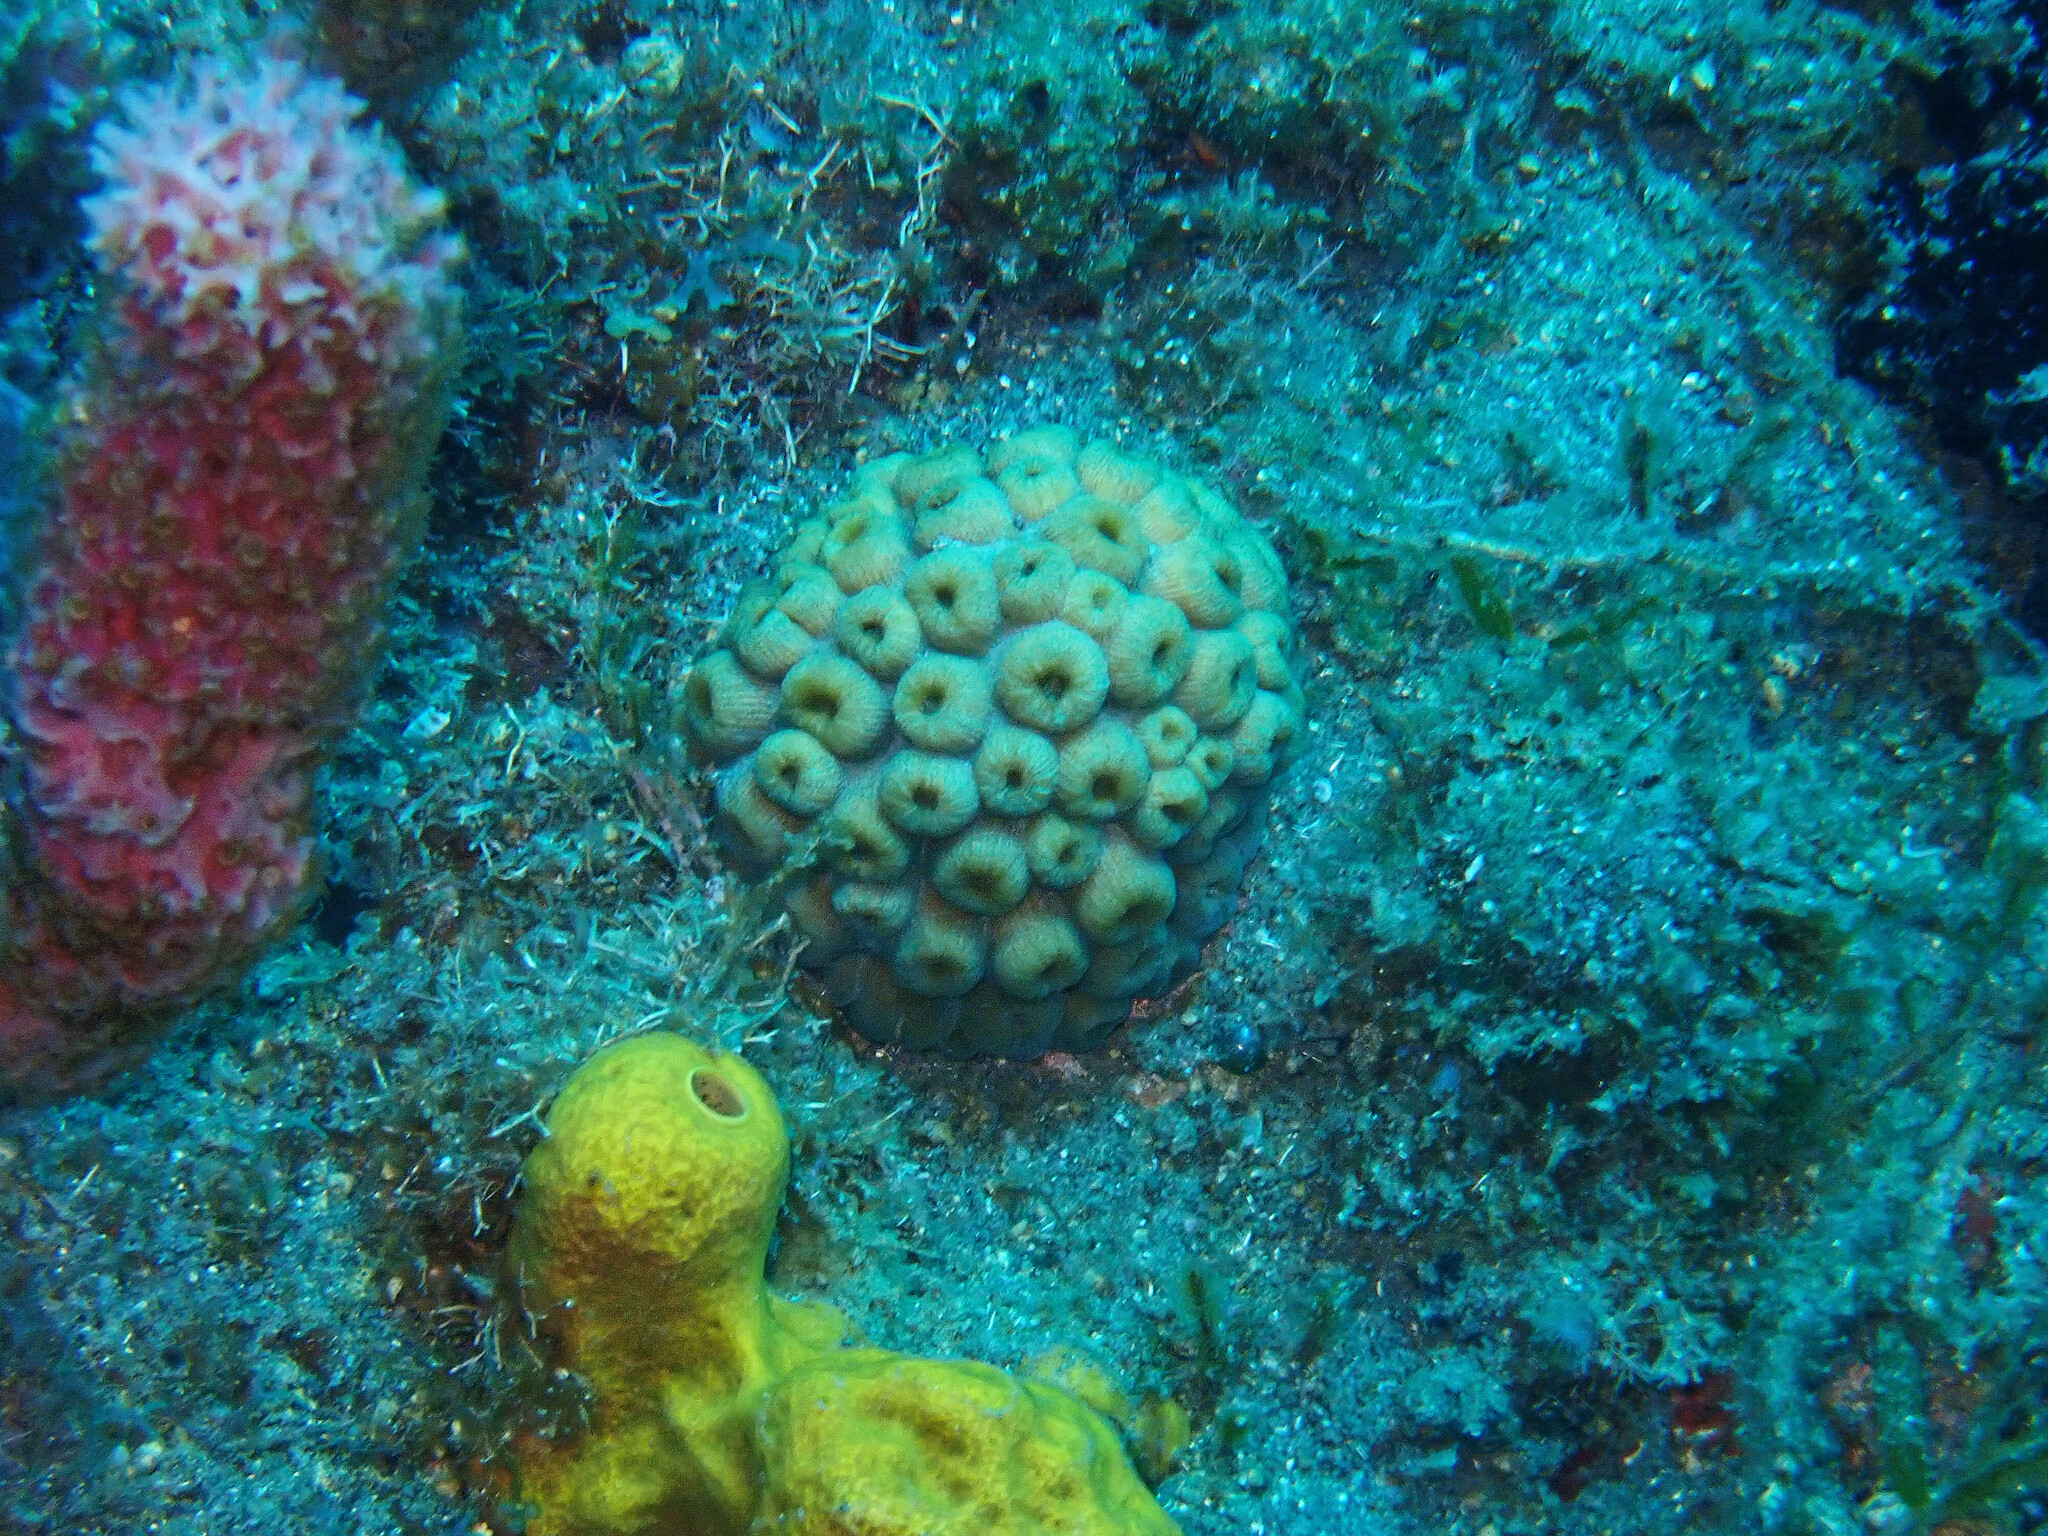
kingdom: Animalia
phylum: Cnidaria
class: Anthozoa
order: Scleractinia
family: Montastraeidae
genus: Montastraea
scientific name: Montastraea cavernosa
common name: Great star coral
